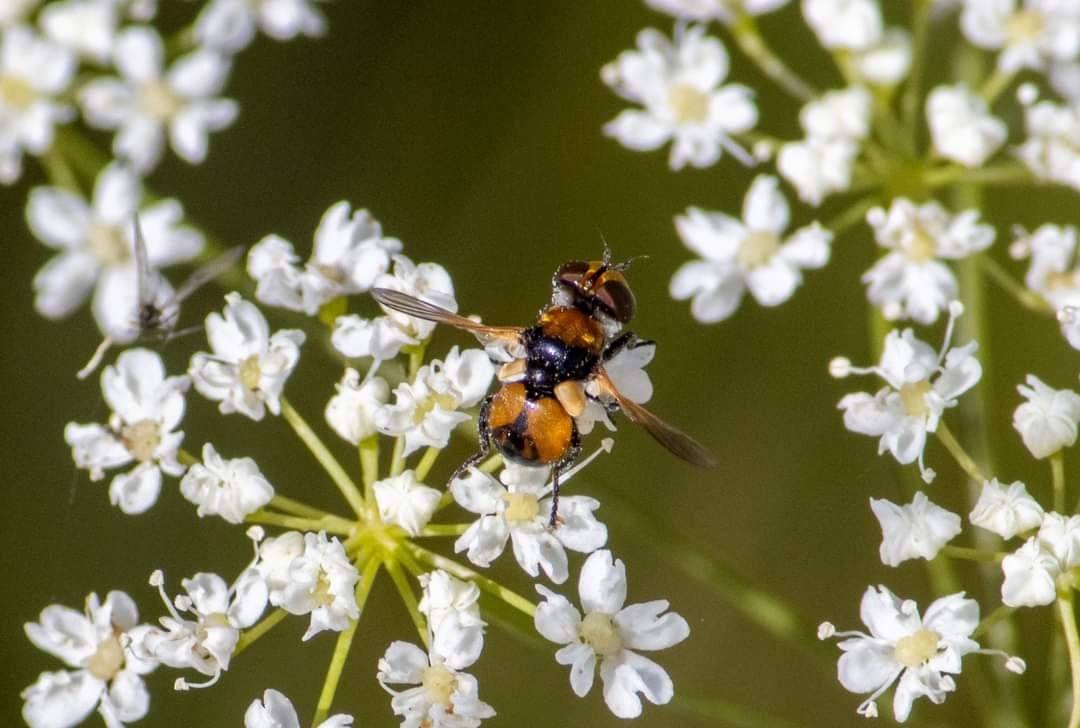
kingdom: Animalia
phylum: Arthropoda
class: Insecta
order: Diptera
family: Tachinidae
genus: Cistogaster
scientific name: Cistogaster globosa
